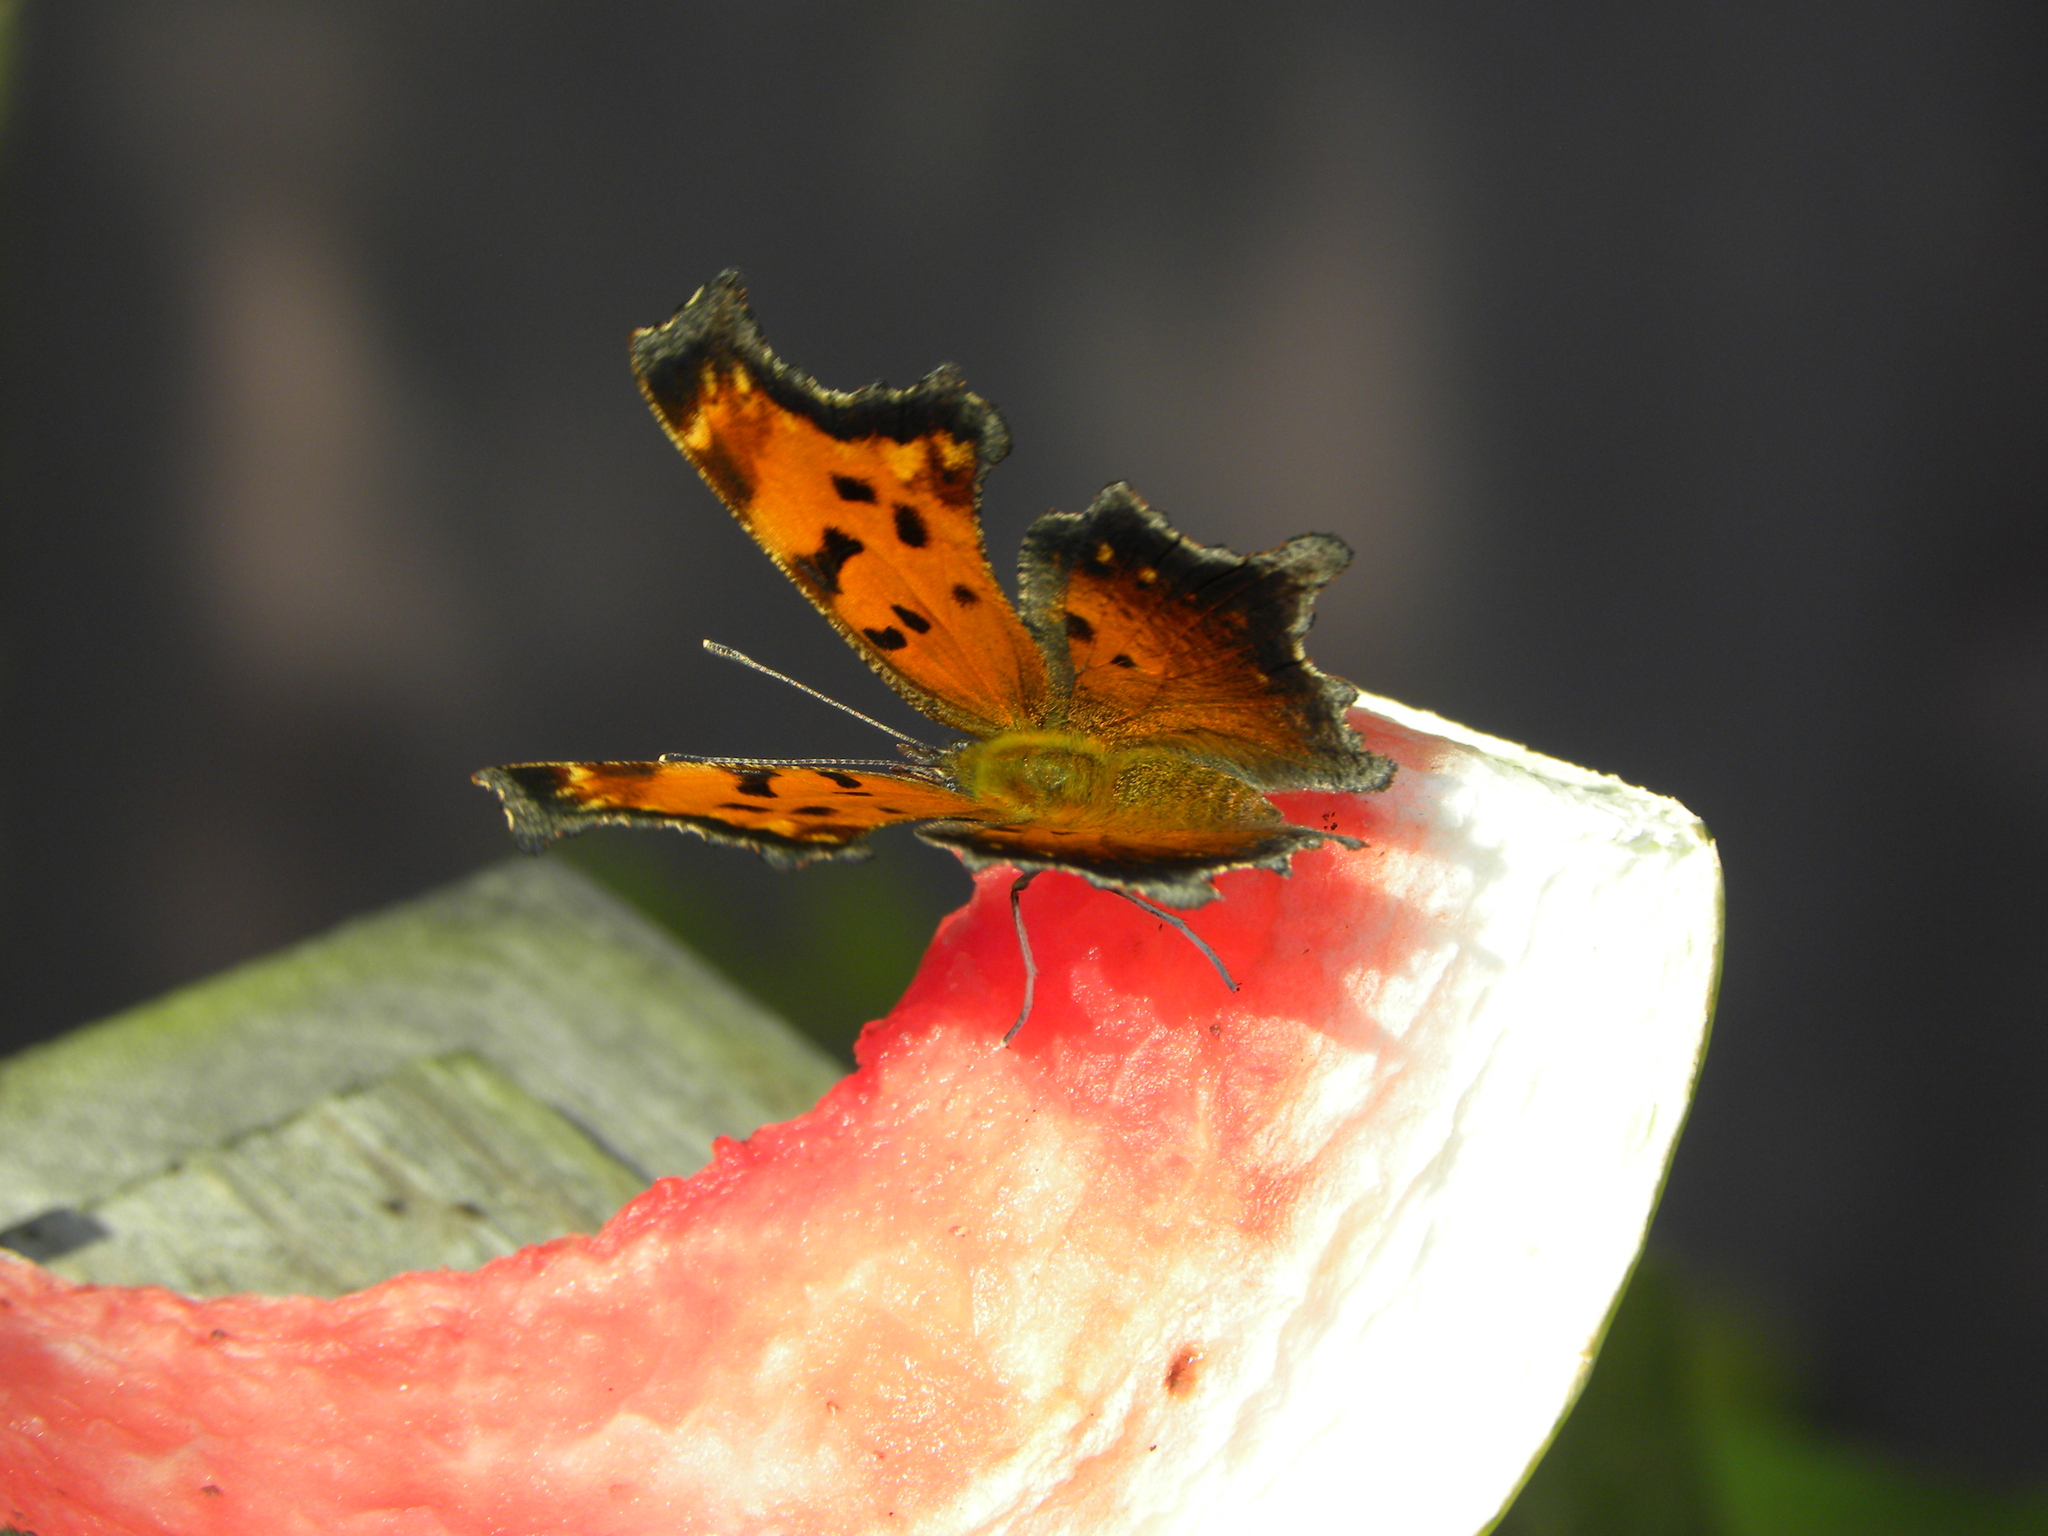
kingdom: Animalia
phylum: Arthropoda
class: Insecta
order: Lepidoptera
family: Nymphalidae
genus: Polygonia
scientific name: Polygonia comma
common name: Eastern comma
